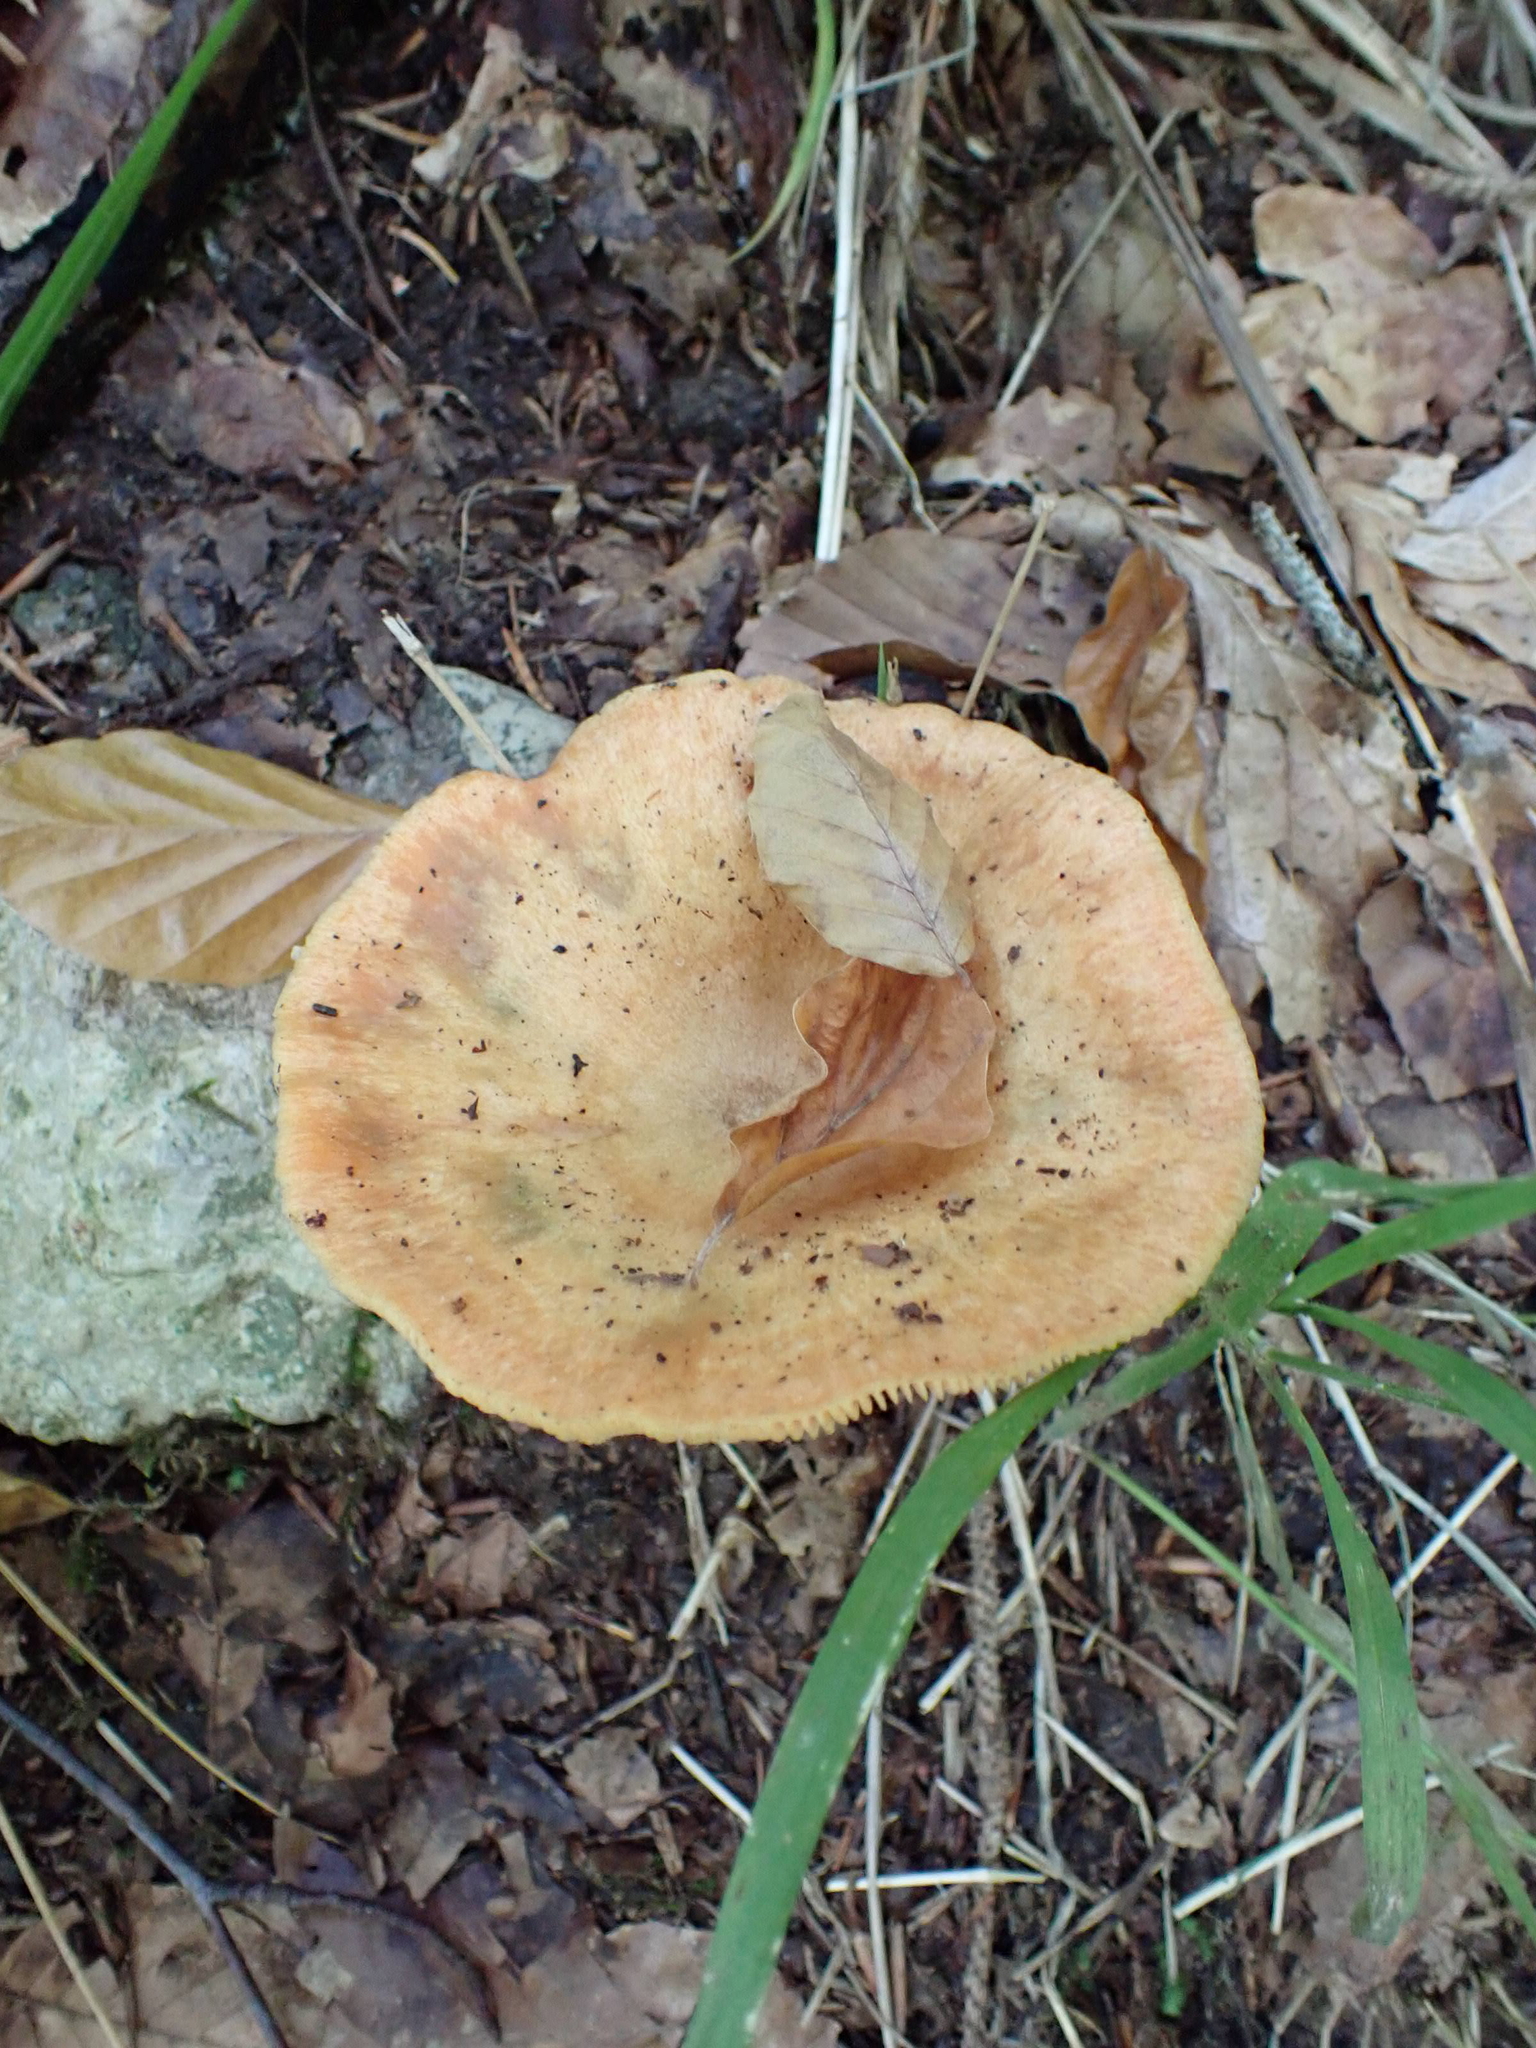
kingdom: Fungi
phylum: Basidiomycota
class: Agaricomycetes
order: Russulales
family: Russulaceae
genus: Lactarius
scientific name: Lactarius deterrimus
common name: False saffron milkcap
